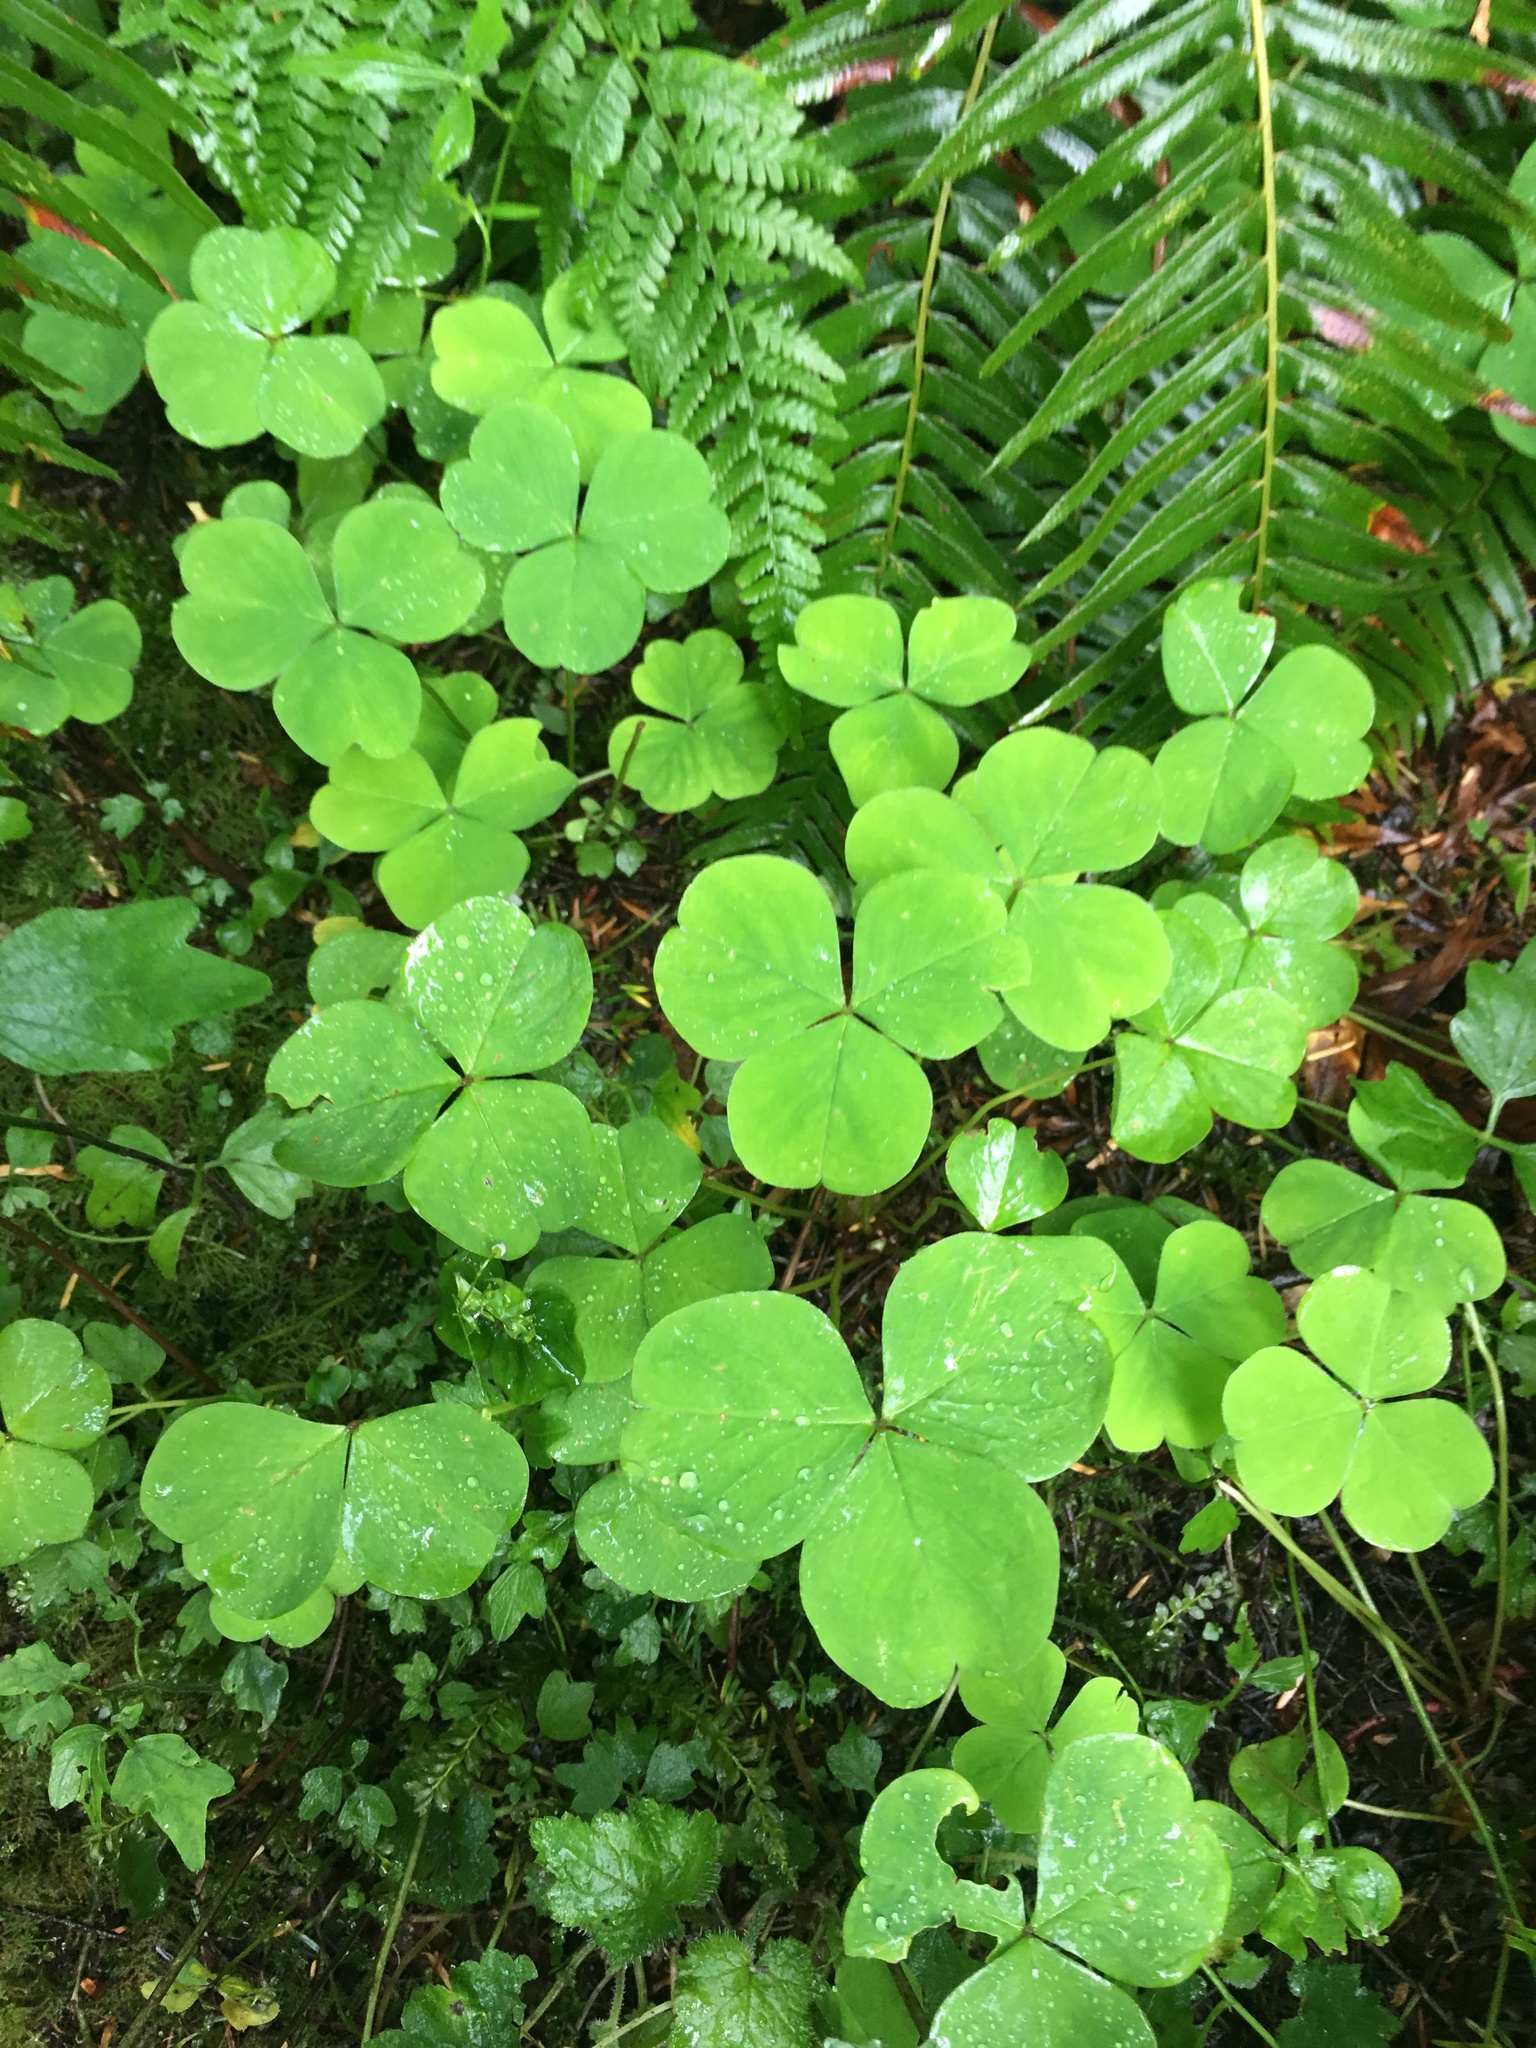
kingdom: Plantae
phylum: Tracheophyta
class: Magnoliopsida
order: Oxalidales
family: Oxalidaceae
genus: Oxalis
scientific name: Oxalis oregana
